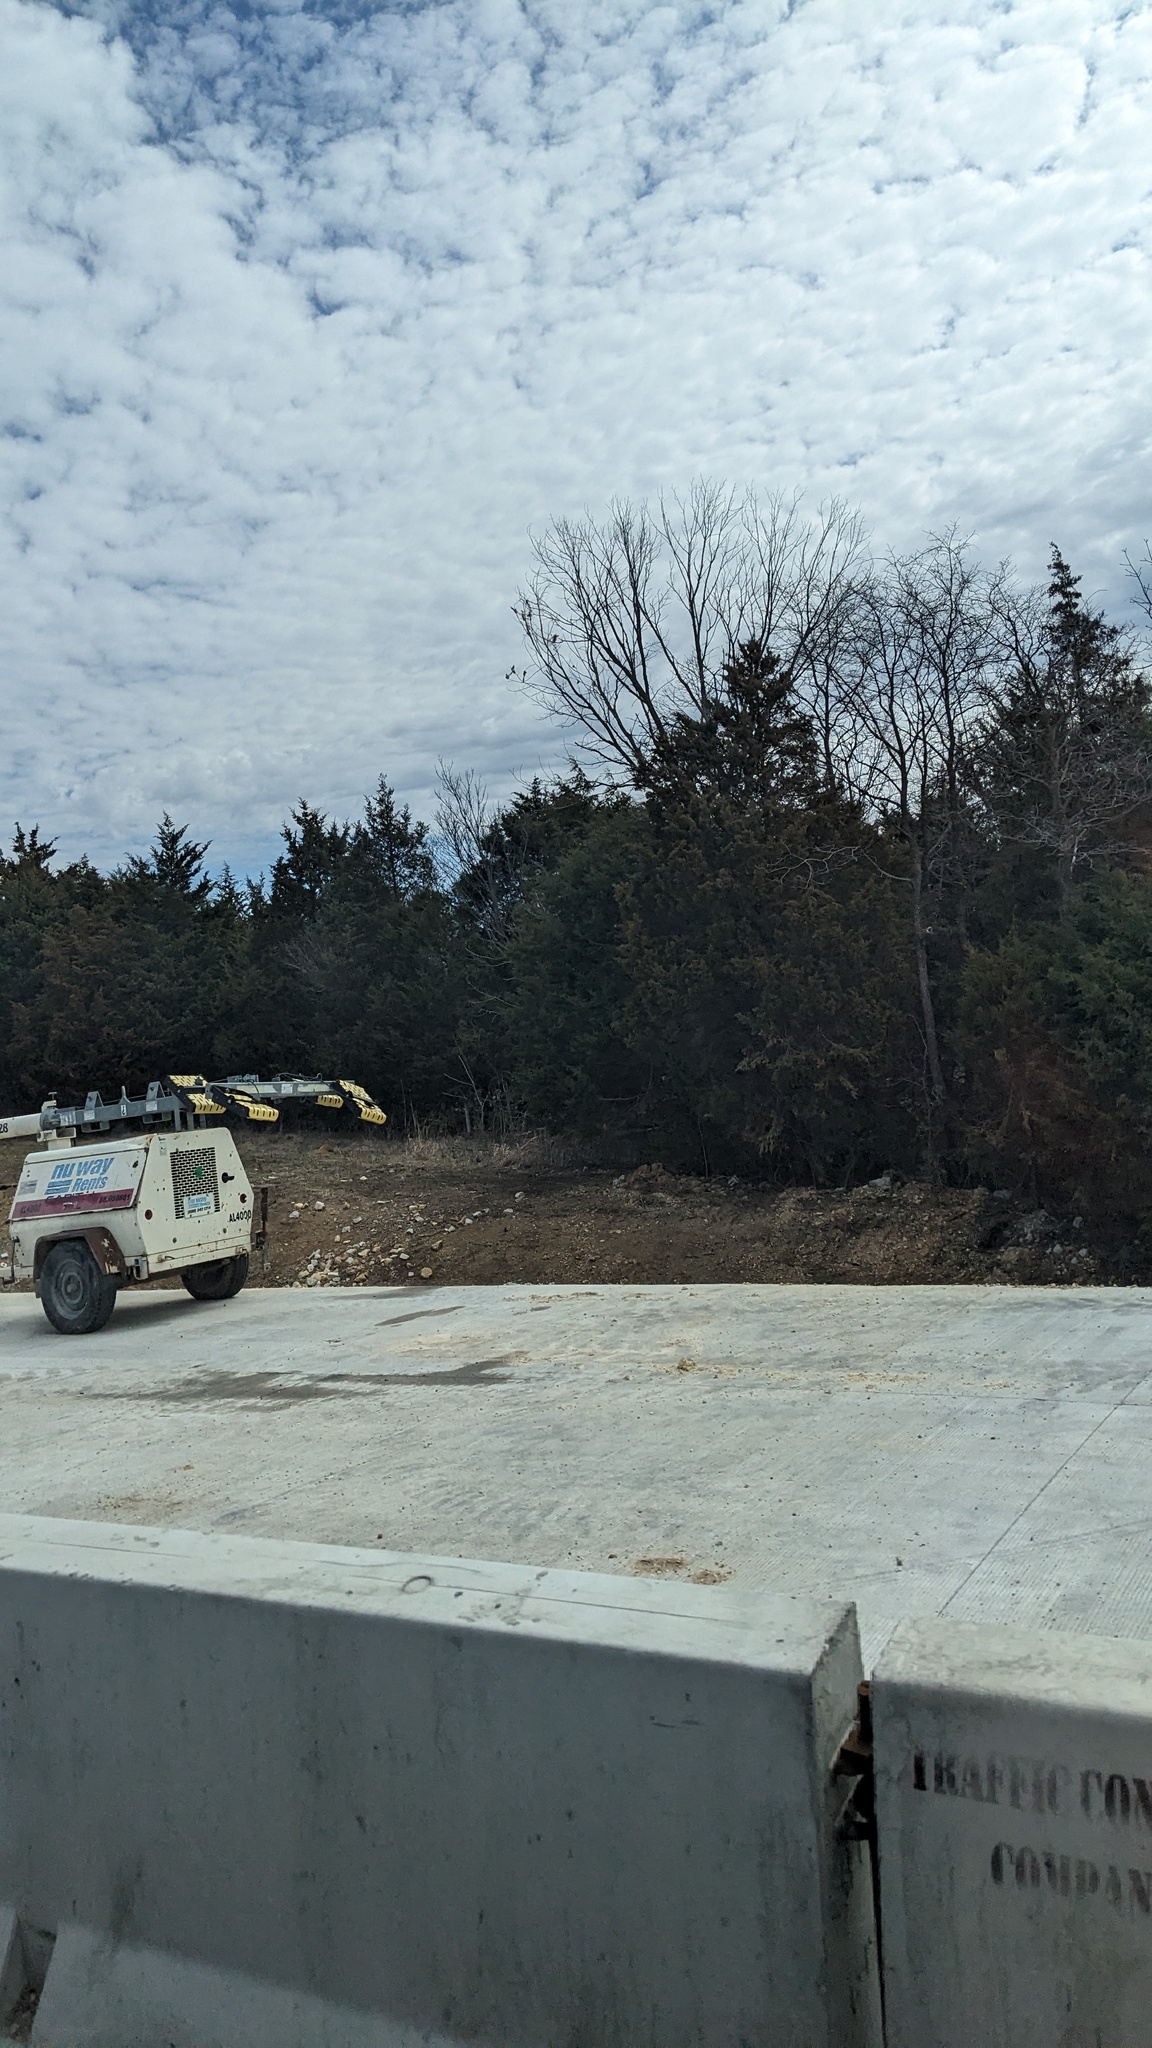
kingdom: Plantae
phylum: Tracheophyta
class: Pinopsida
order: Pinales
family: Cupressaceae
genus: Juniperus
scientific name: Juniperus virginiana
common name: Red juniper
